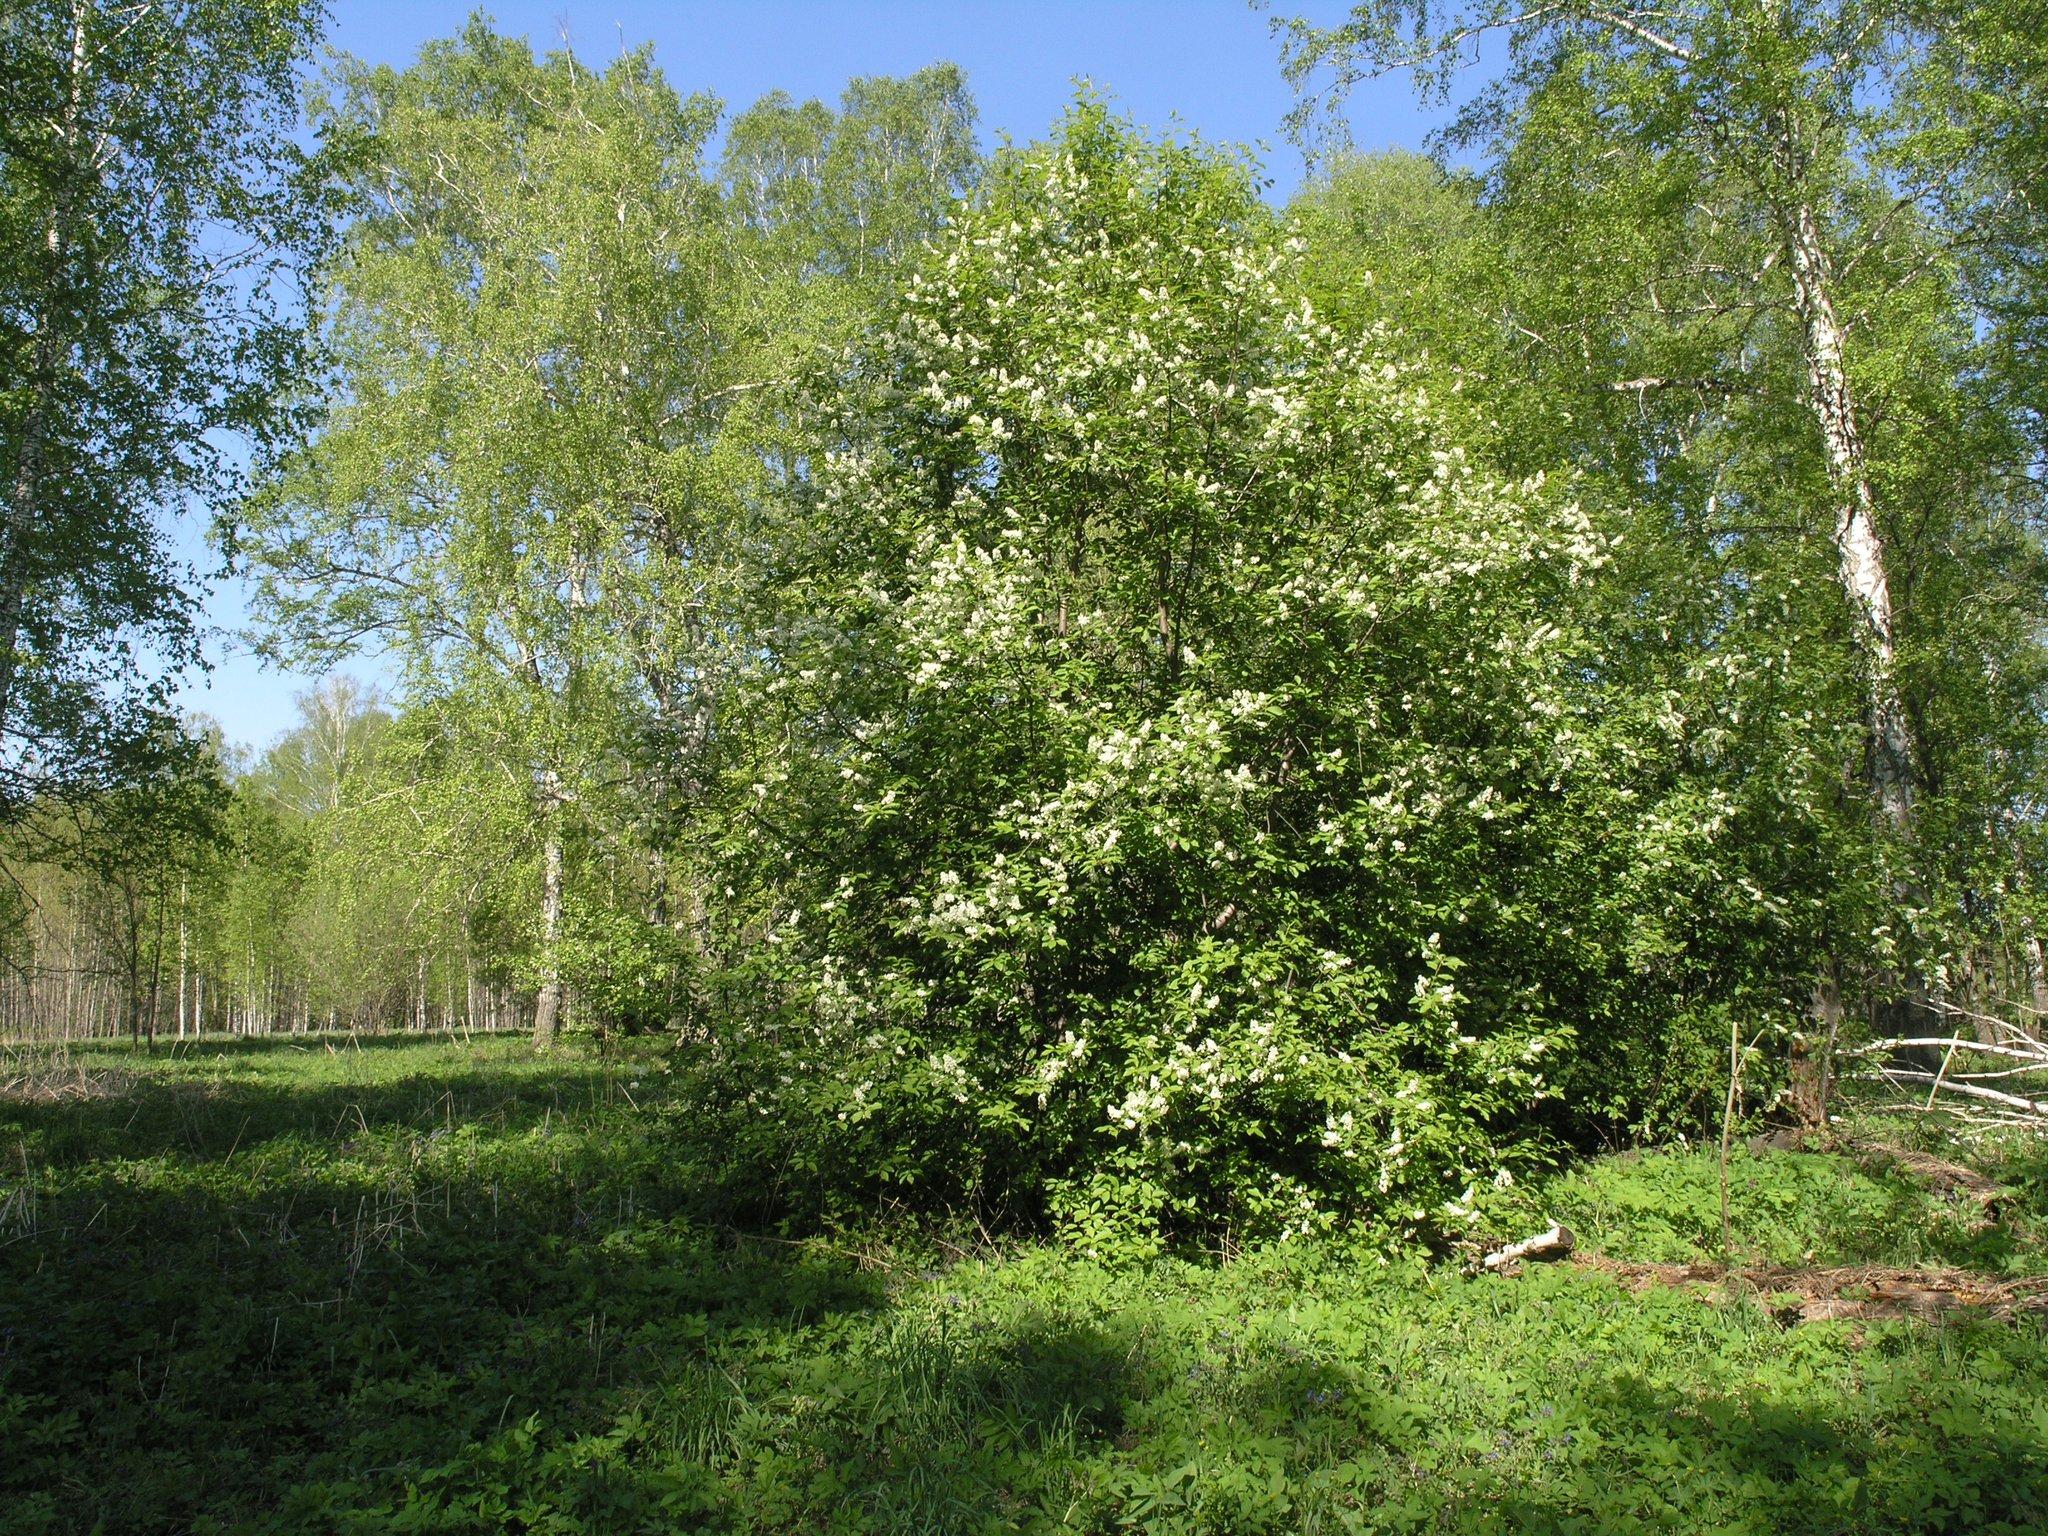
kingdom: Plantae
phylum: Tracheophyta
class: Magnoliopsida
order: Rosales
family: Rosaceae
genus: Prunus
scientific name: Prunus padus
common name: Bird cherry
